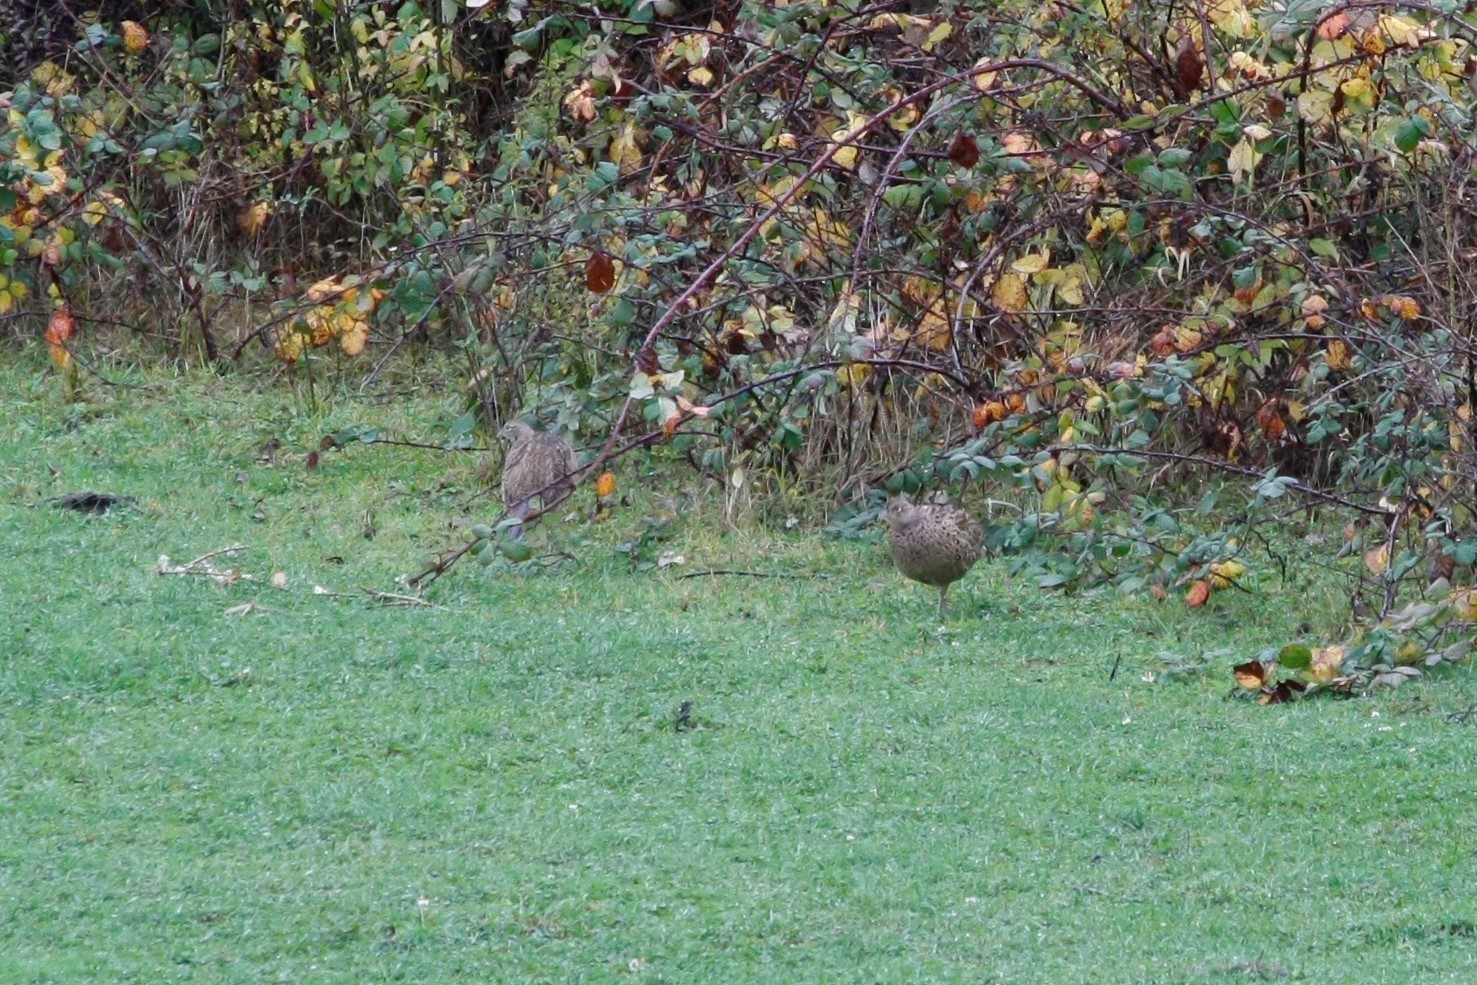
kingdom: Animalia
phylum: Chordata
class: Aves
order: Galliformes
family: Phasianidae
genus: Phasianus
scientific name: Phasianus colchicus
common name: Common pheasant
